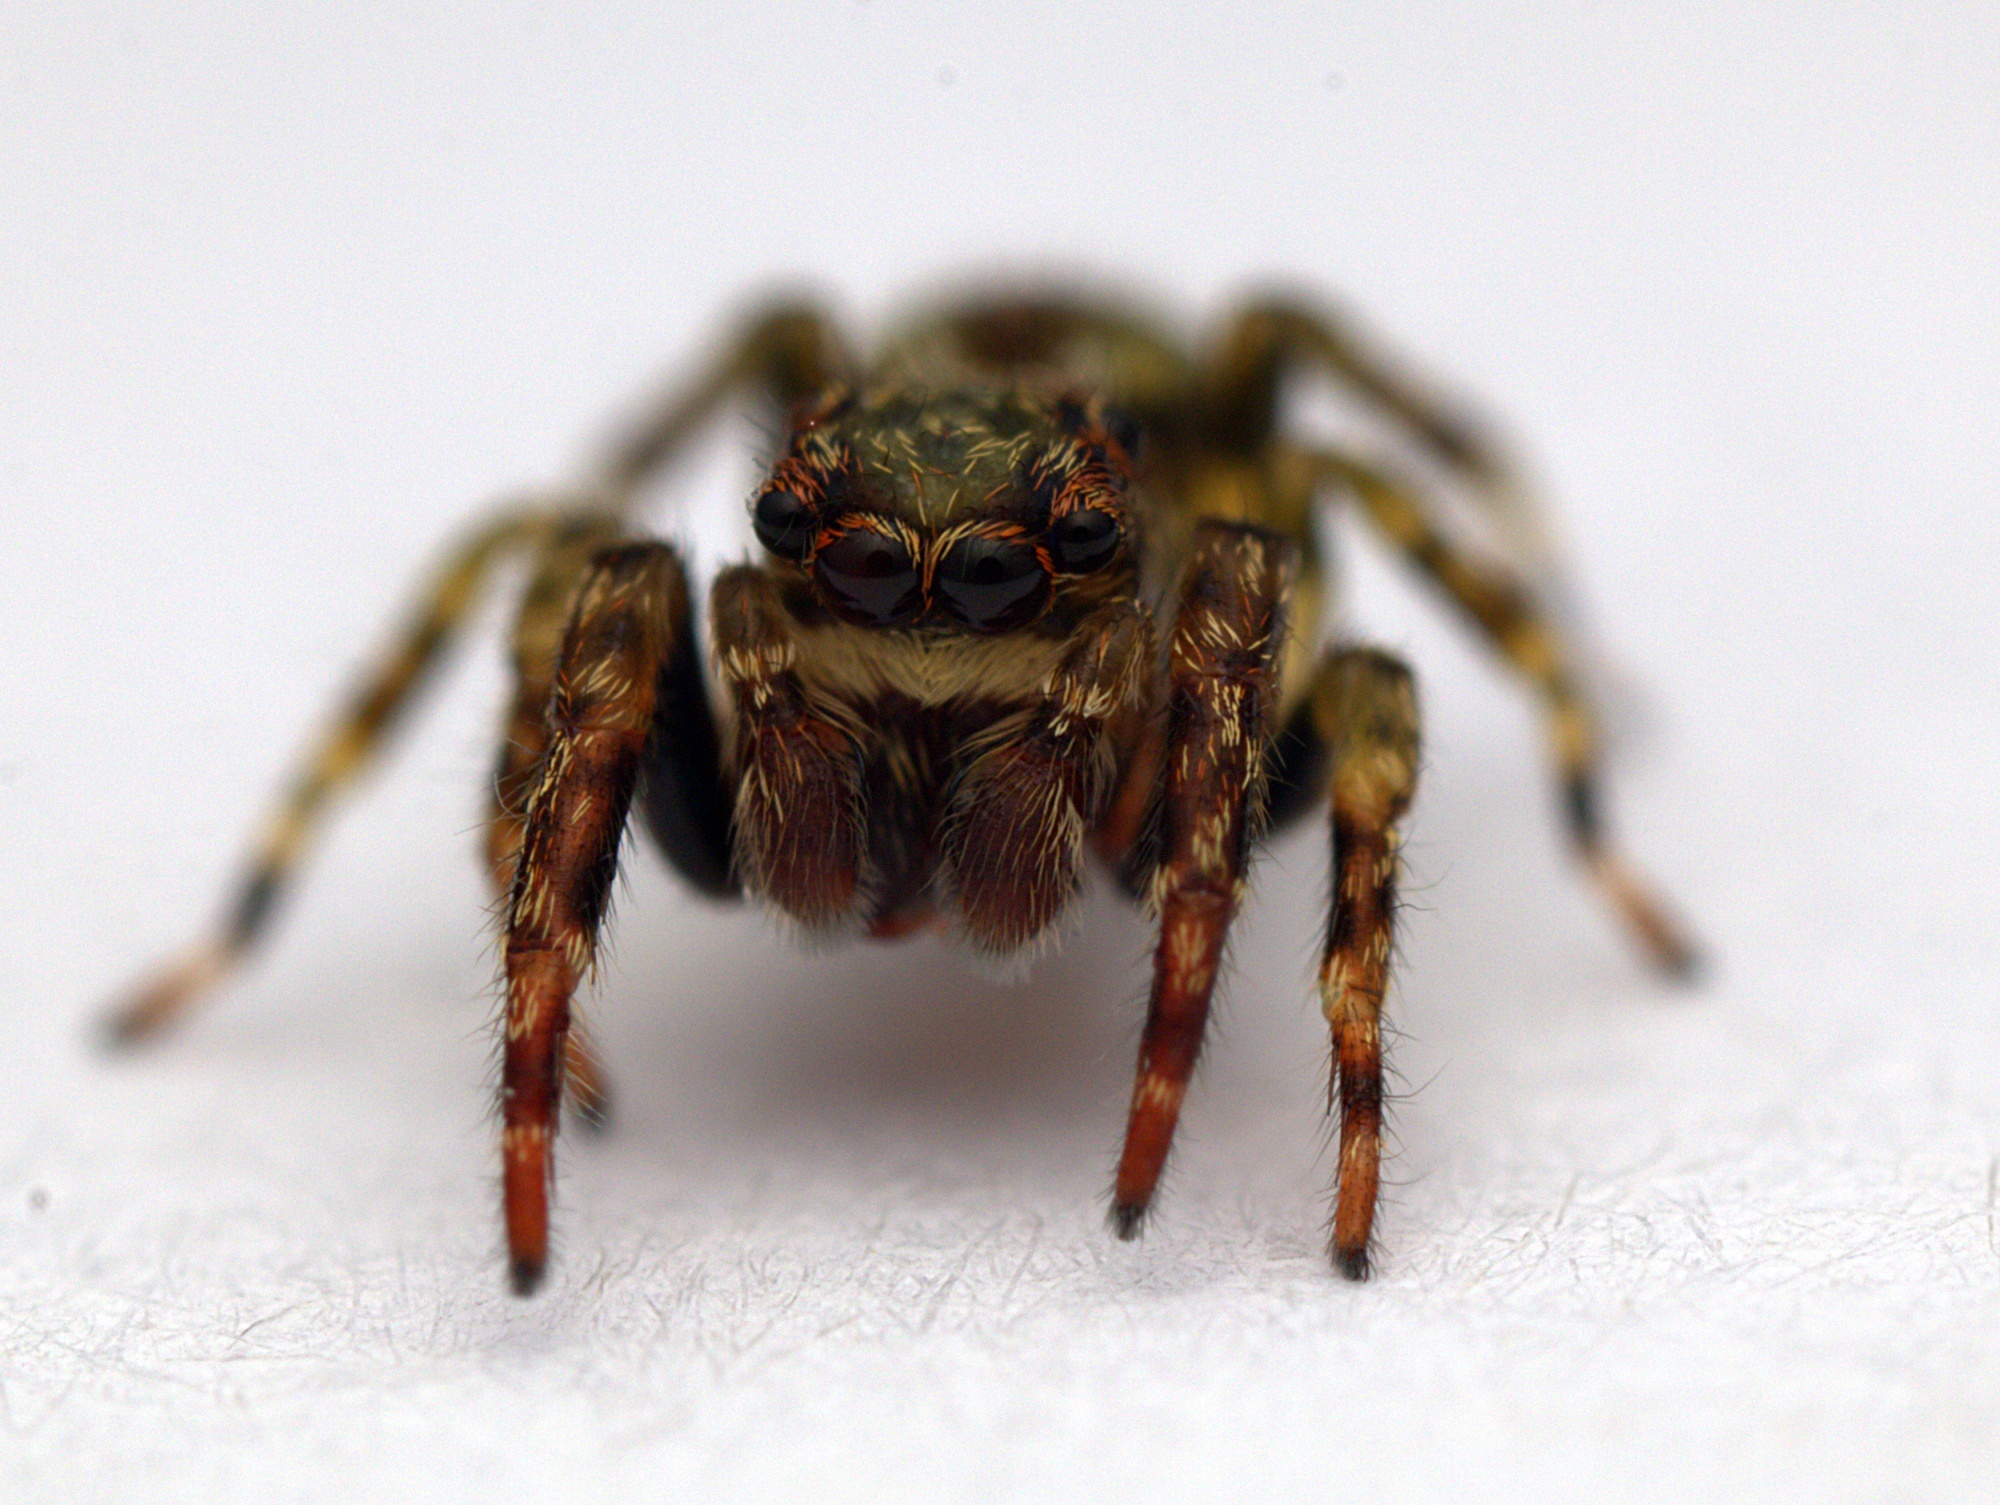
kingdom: Animalia
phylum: Arthropoda
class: Arachnida
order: Araneae
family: Salticidae
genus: Hinewaia
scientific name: Hinewaia embolica
